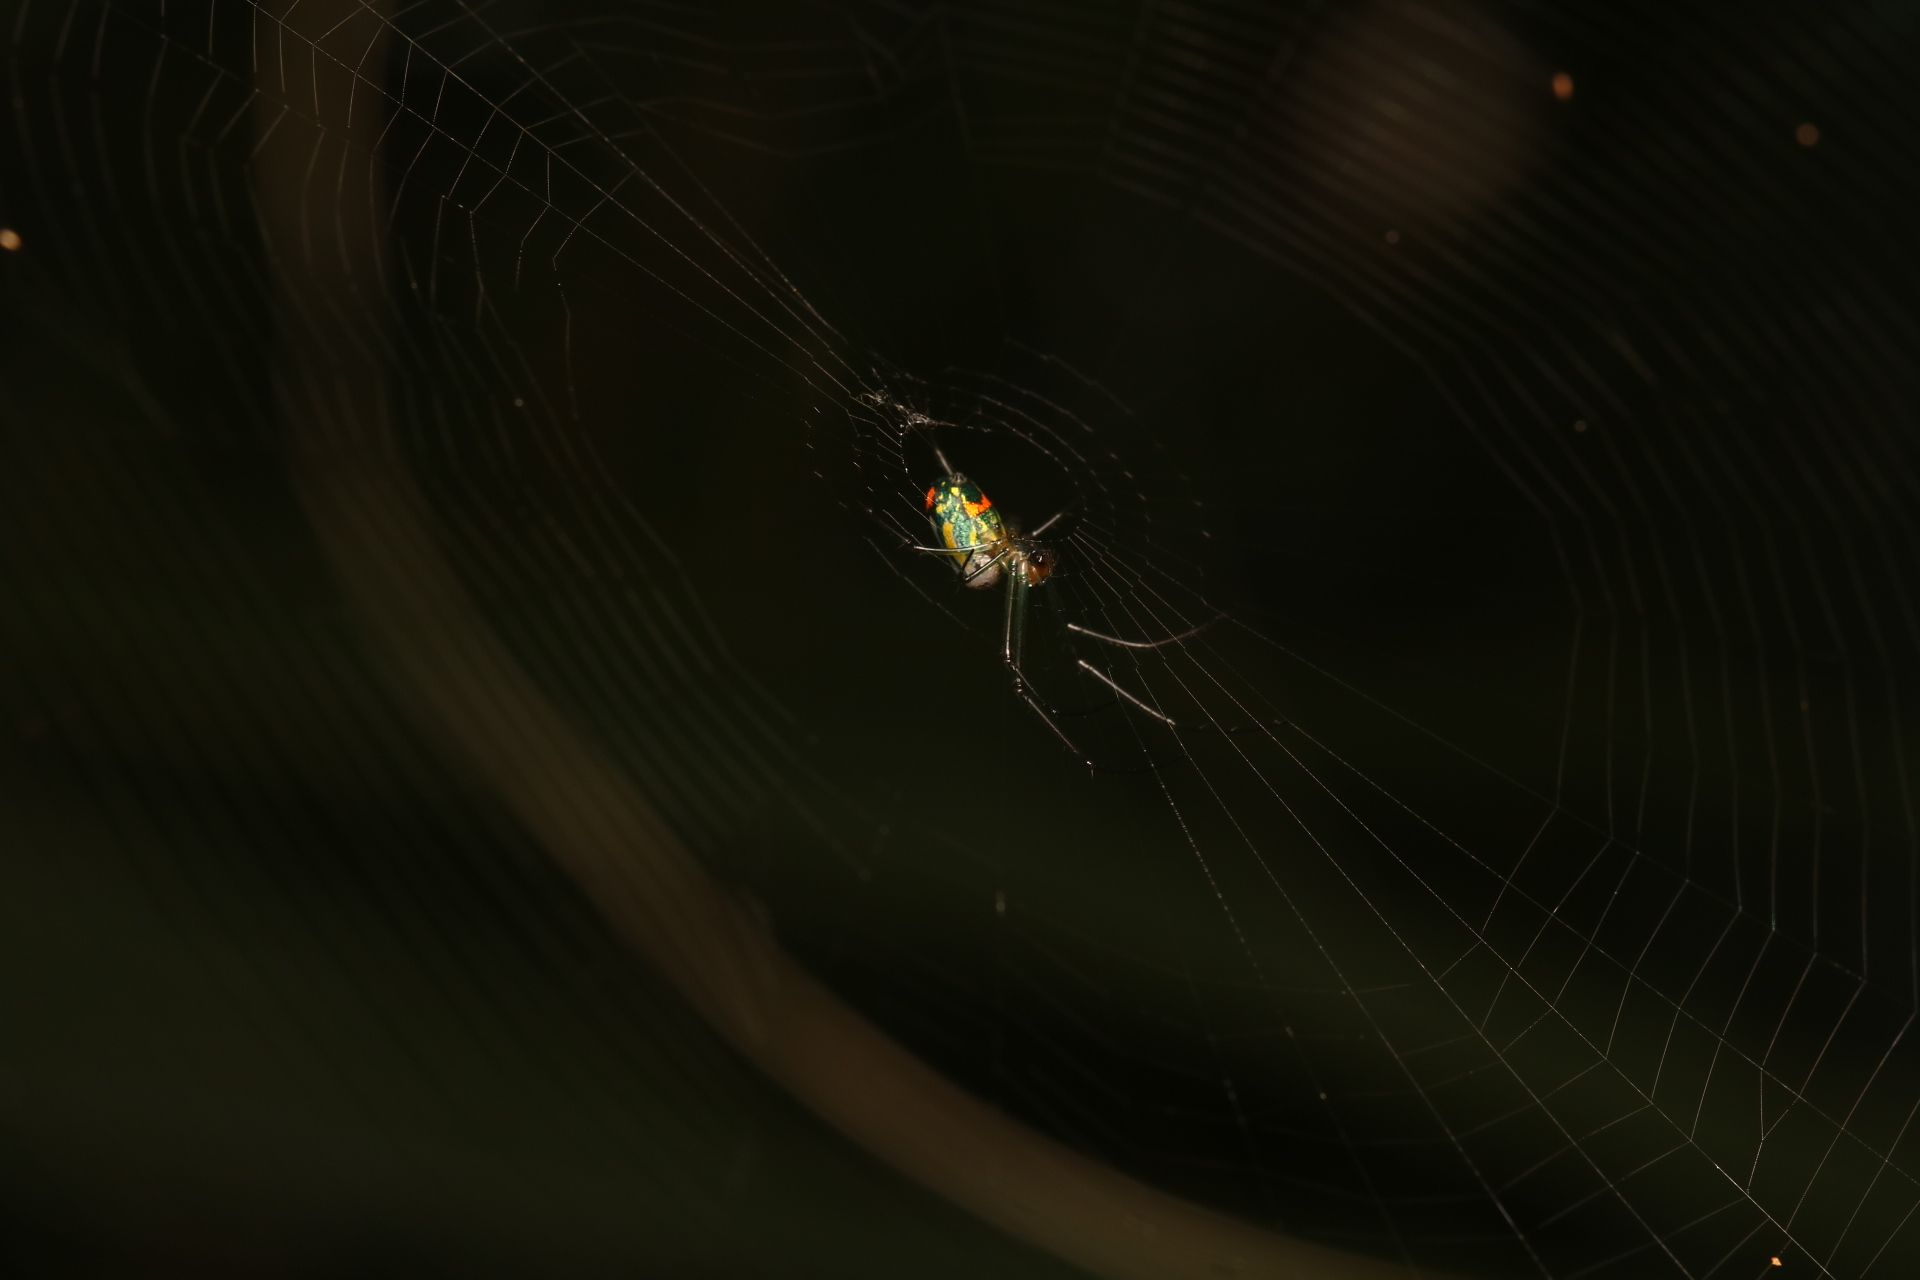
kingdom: Animalia
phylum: Arthropoda
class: Arachnida
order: Araneae
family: Tetragnathidae
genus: Leucauge
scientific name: Leucauge argyrobapta
